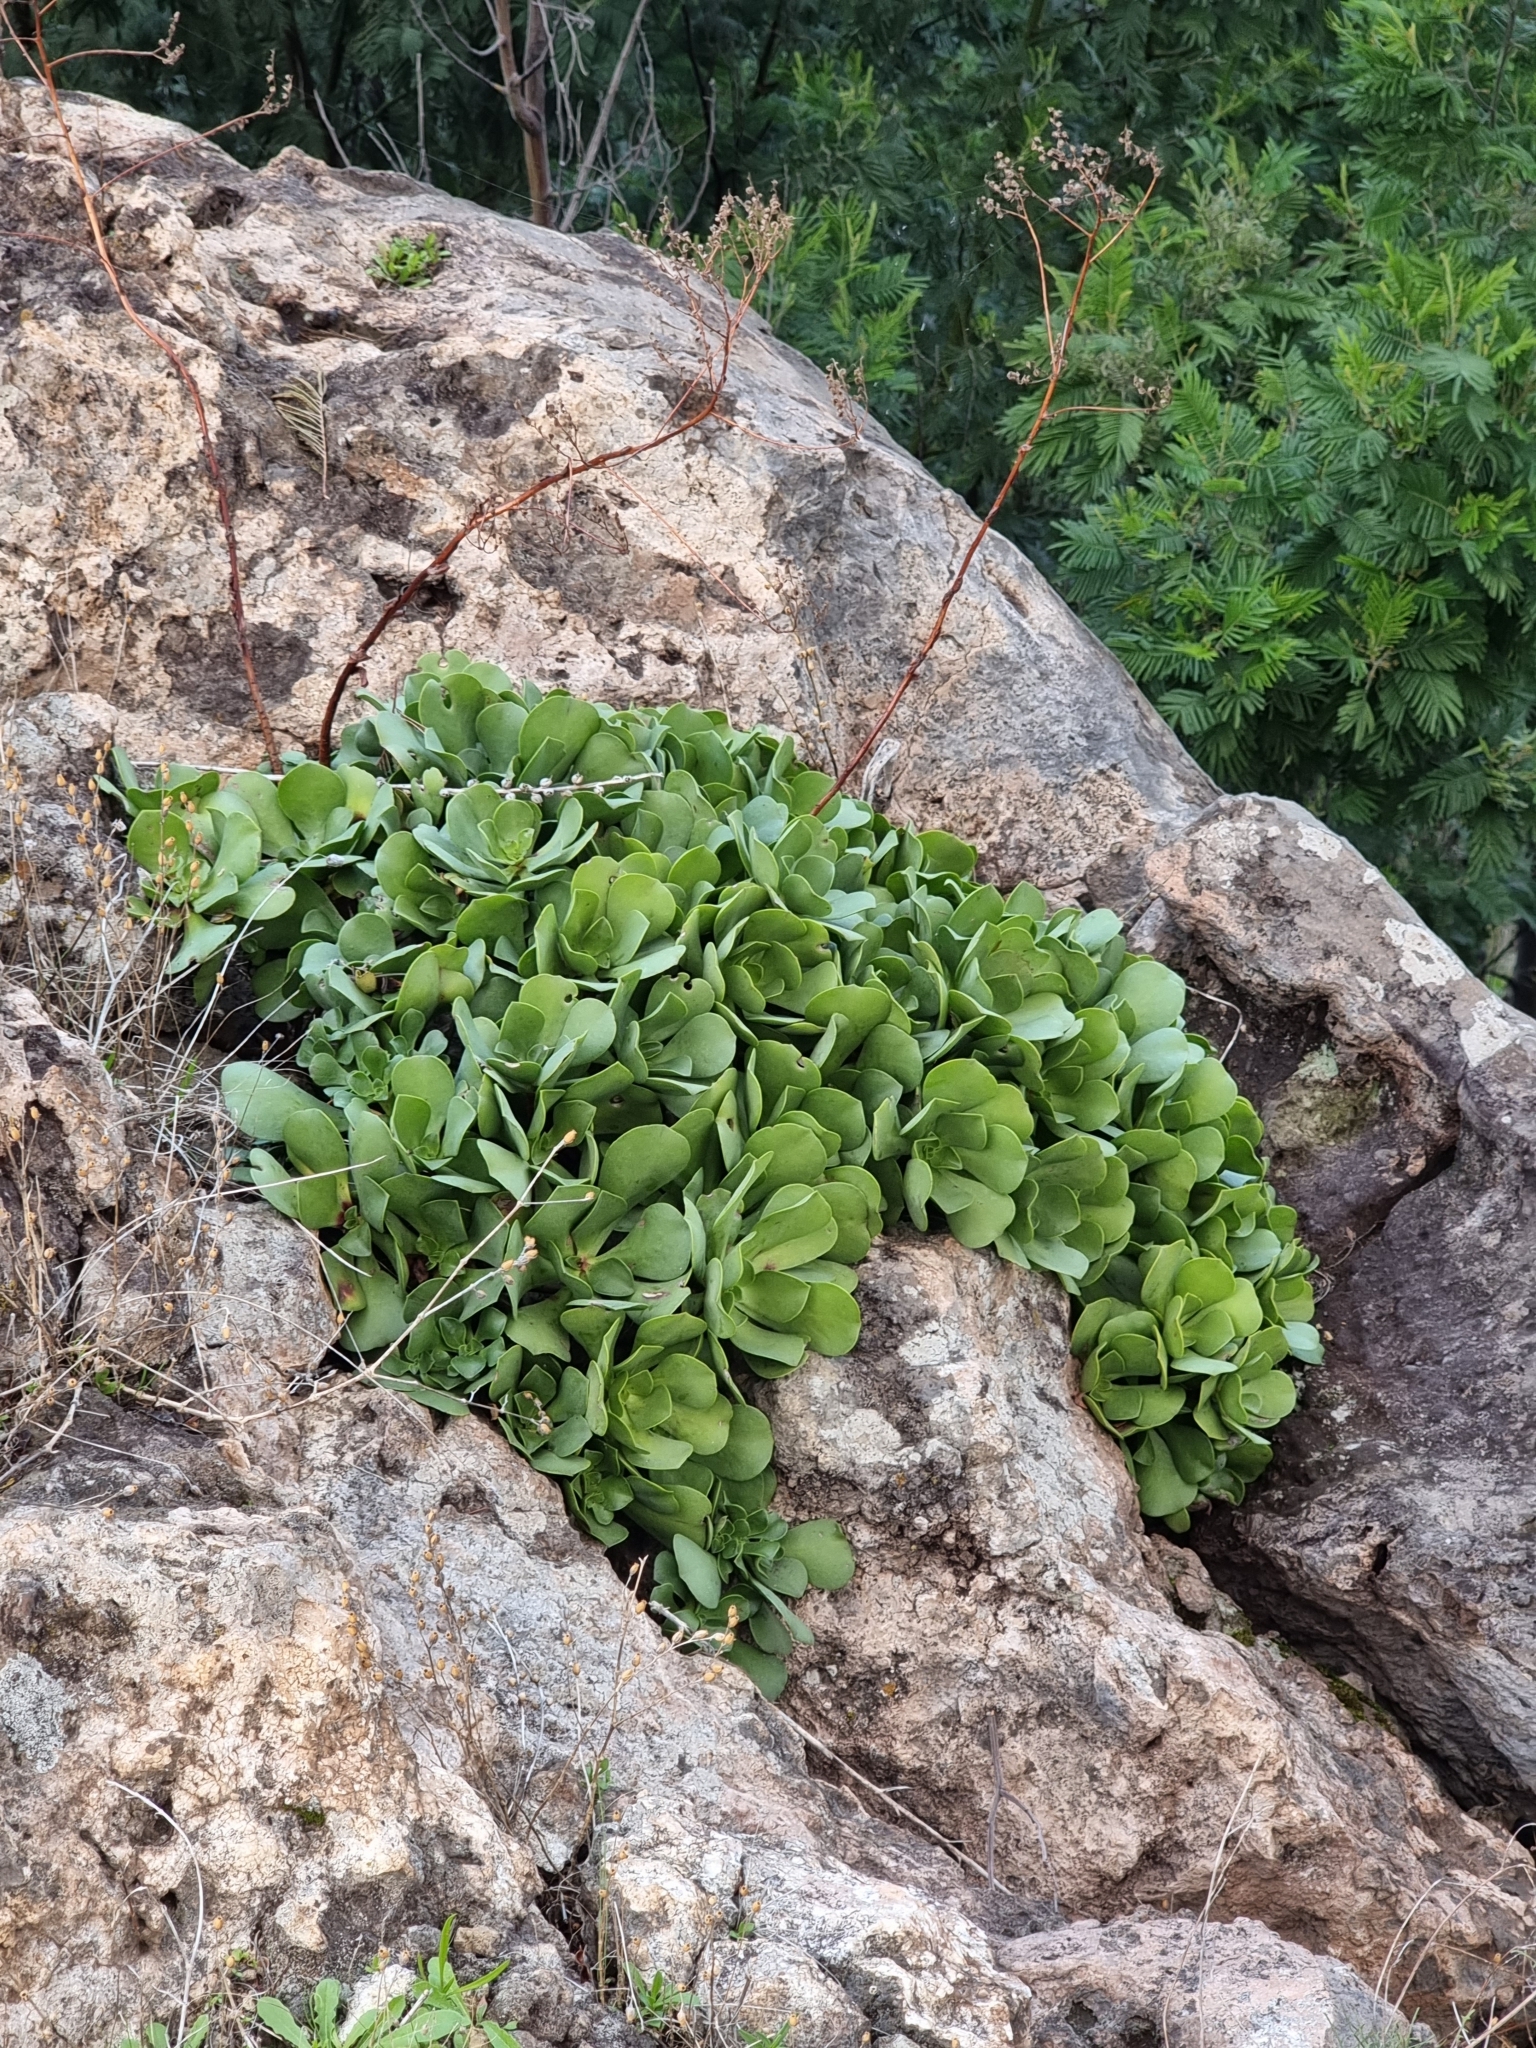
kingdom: Plantae
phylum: Tracheophyta
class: Magnoliopsida
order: Saxifragales
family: Crassulaceae
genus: Aeonium
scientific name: Aeonium glutinosum
